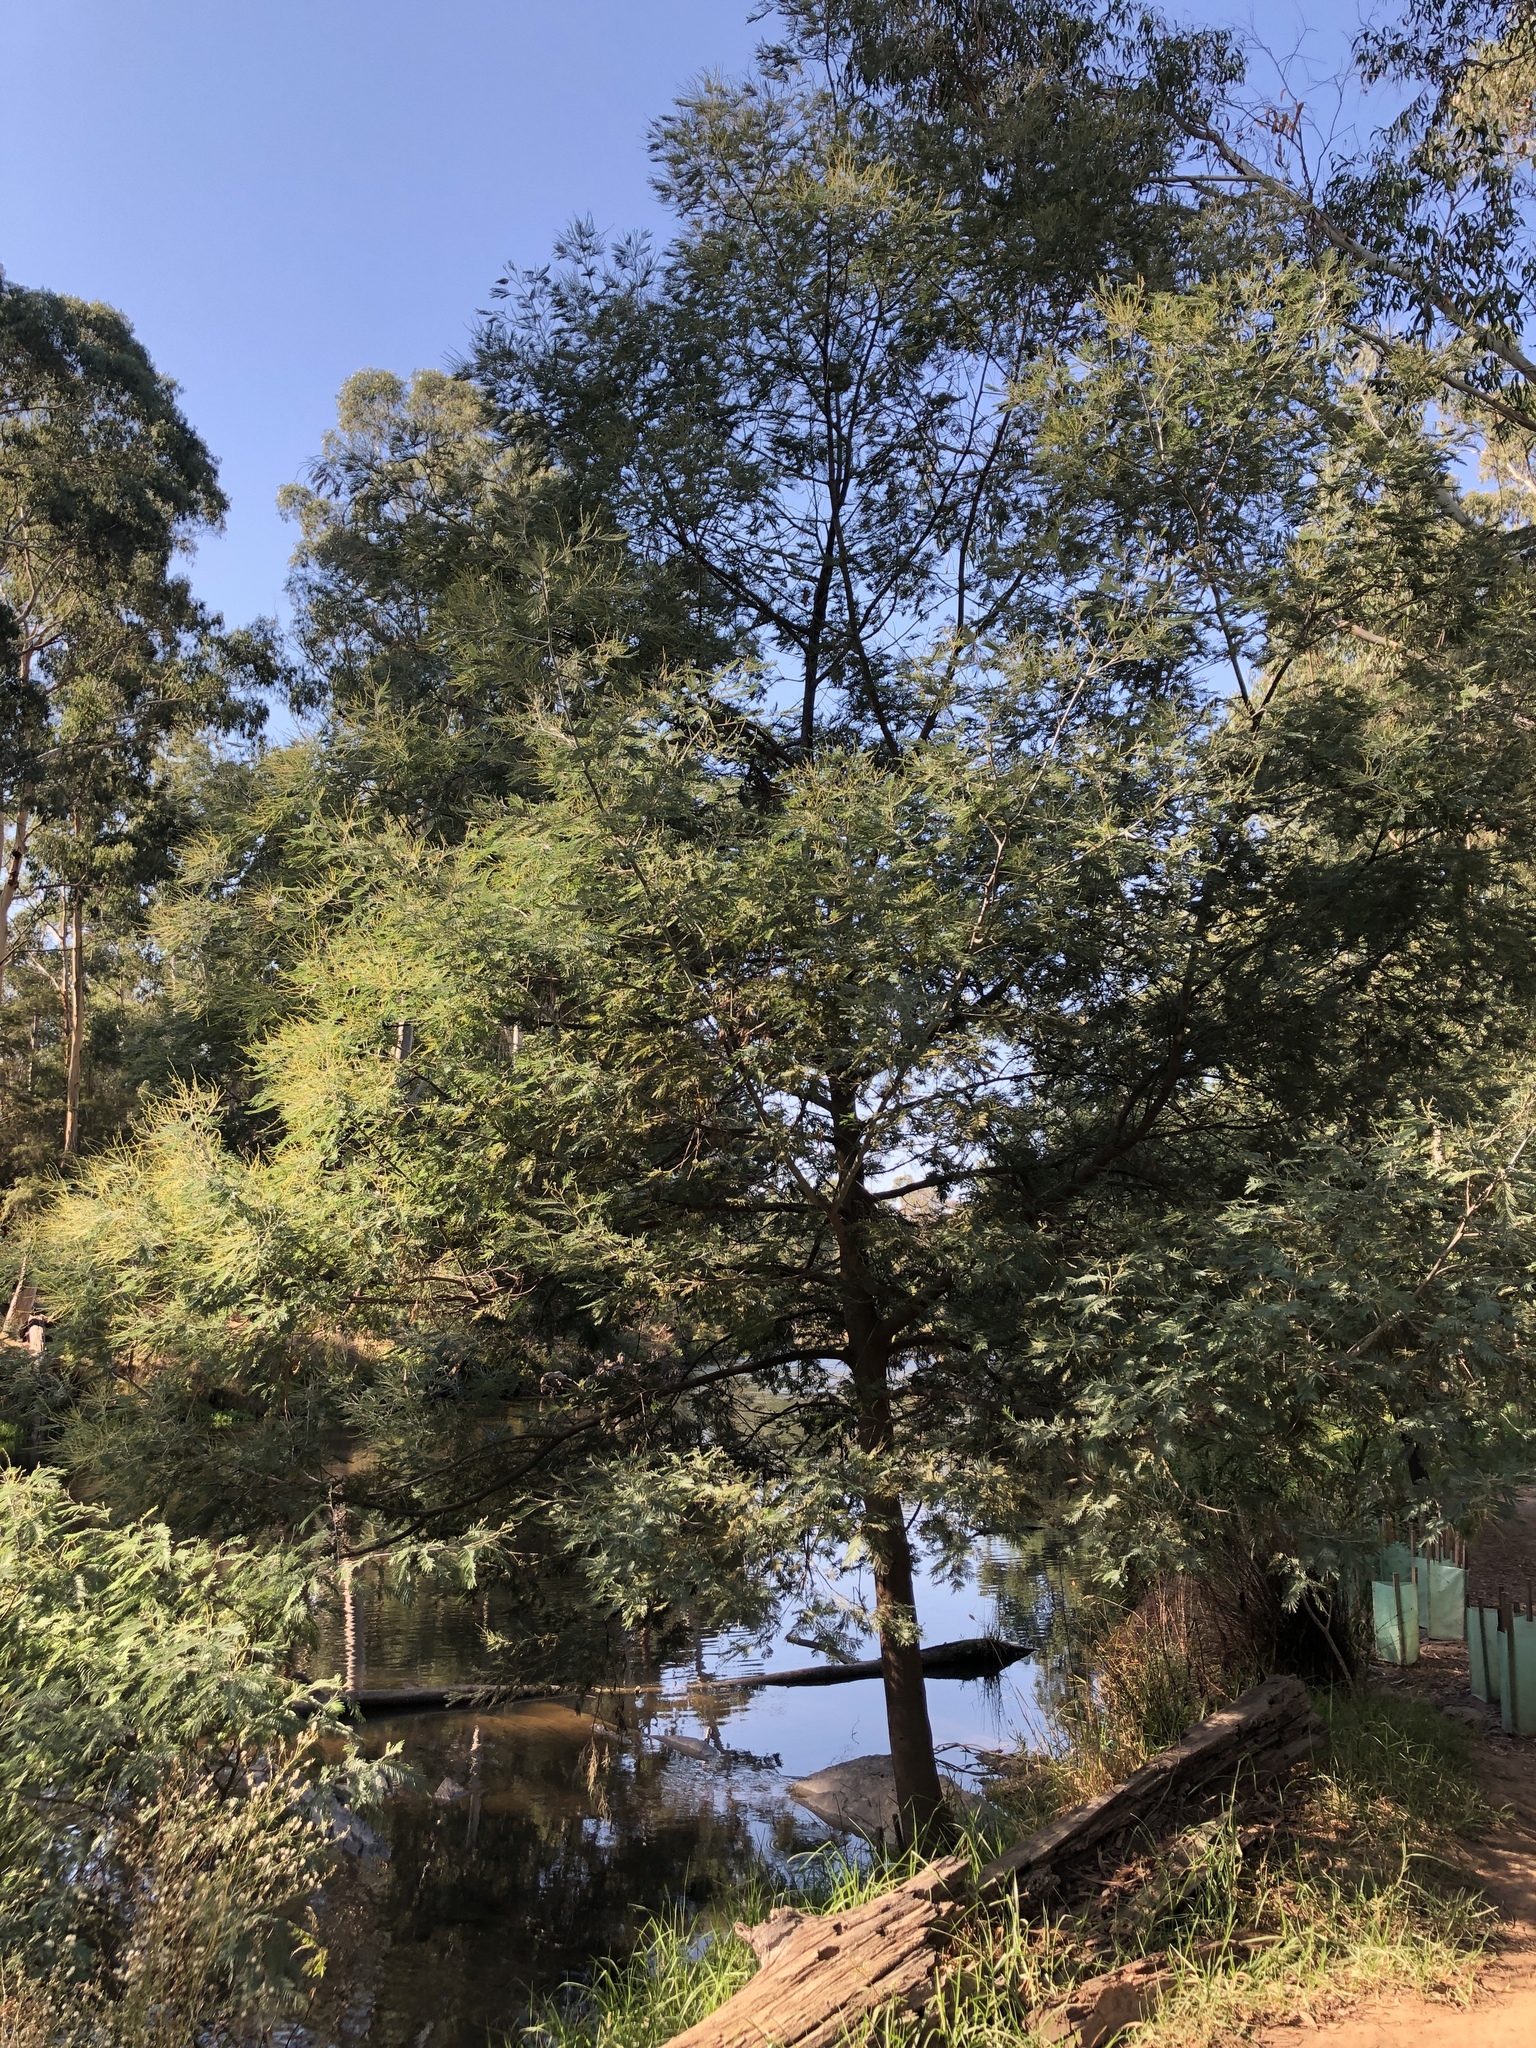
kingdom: Plantae
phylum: Tracheophyta
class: Magnoliopsida
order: Fabales
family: Fabaceae
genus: Acacia
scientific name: Acacia dealbata
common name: Silver wattle
